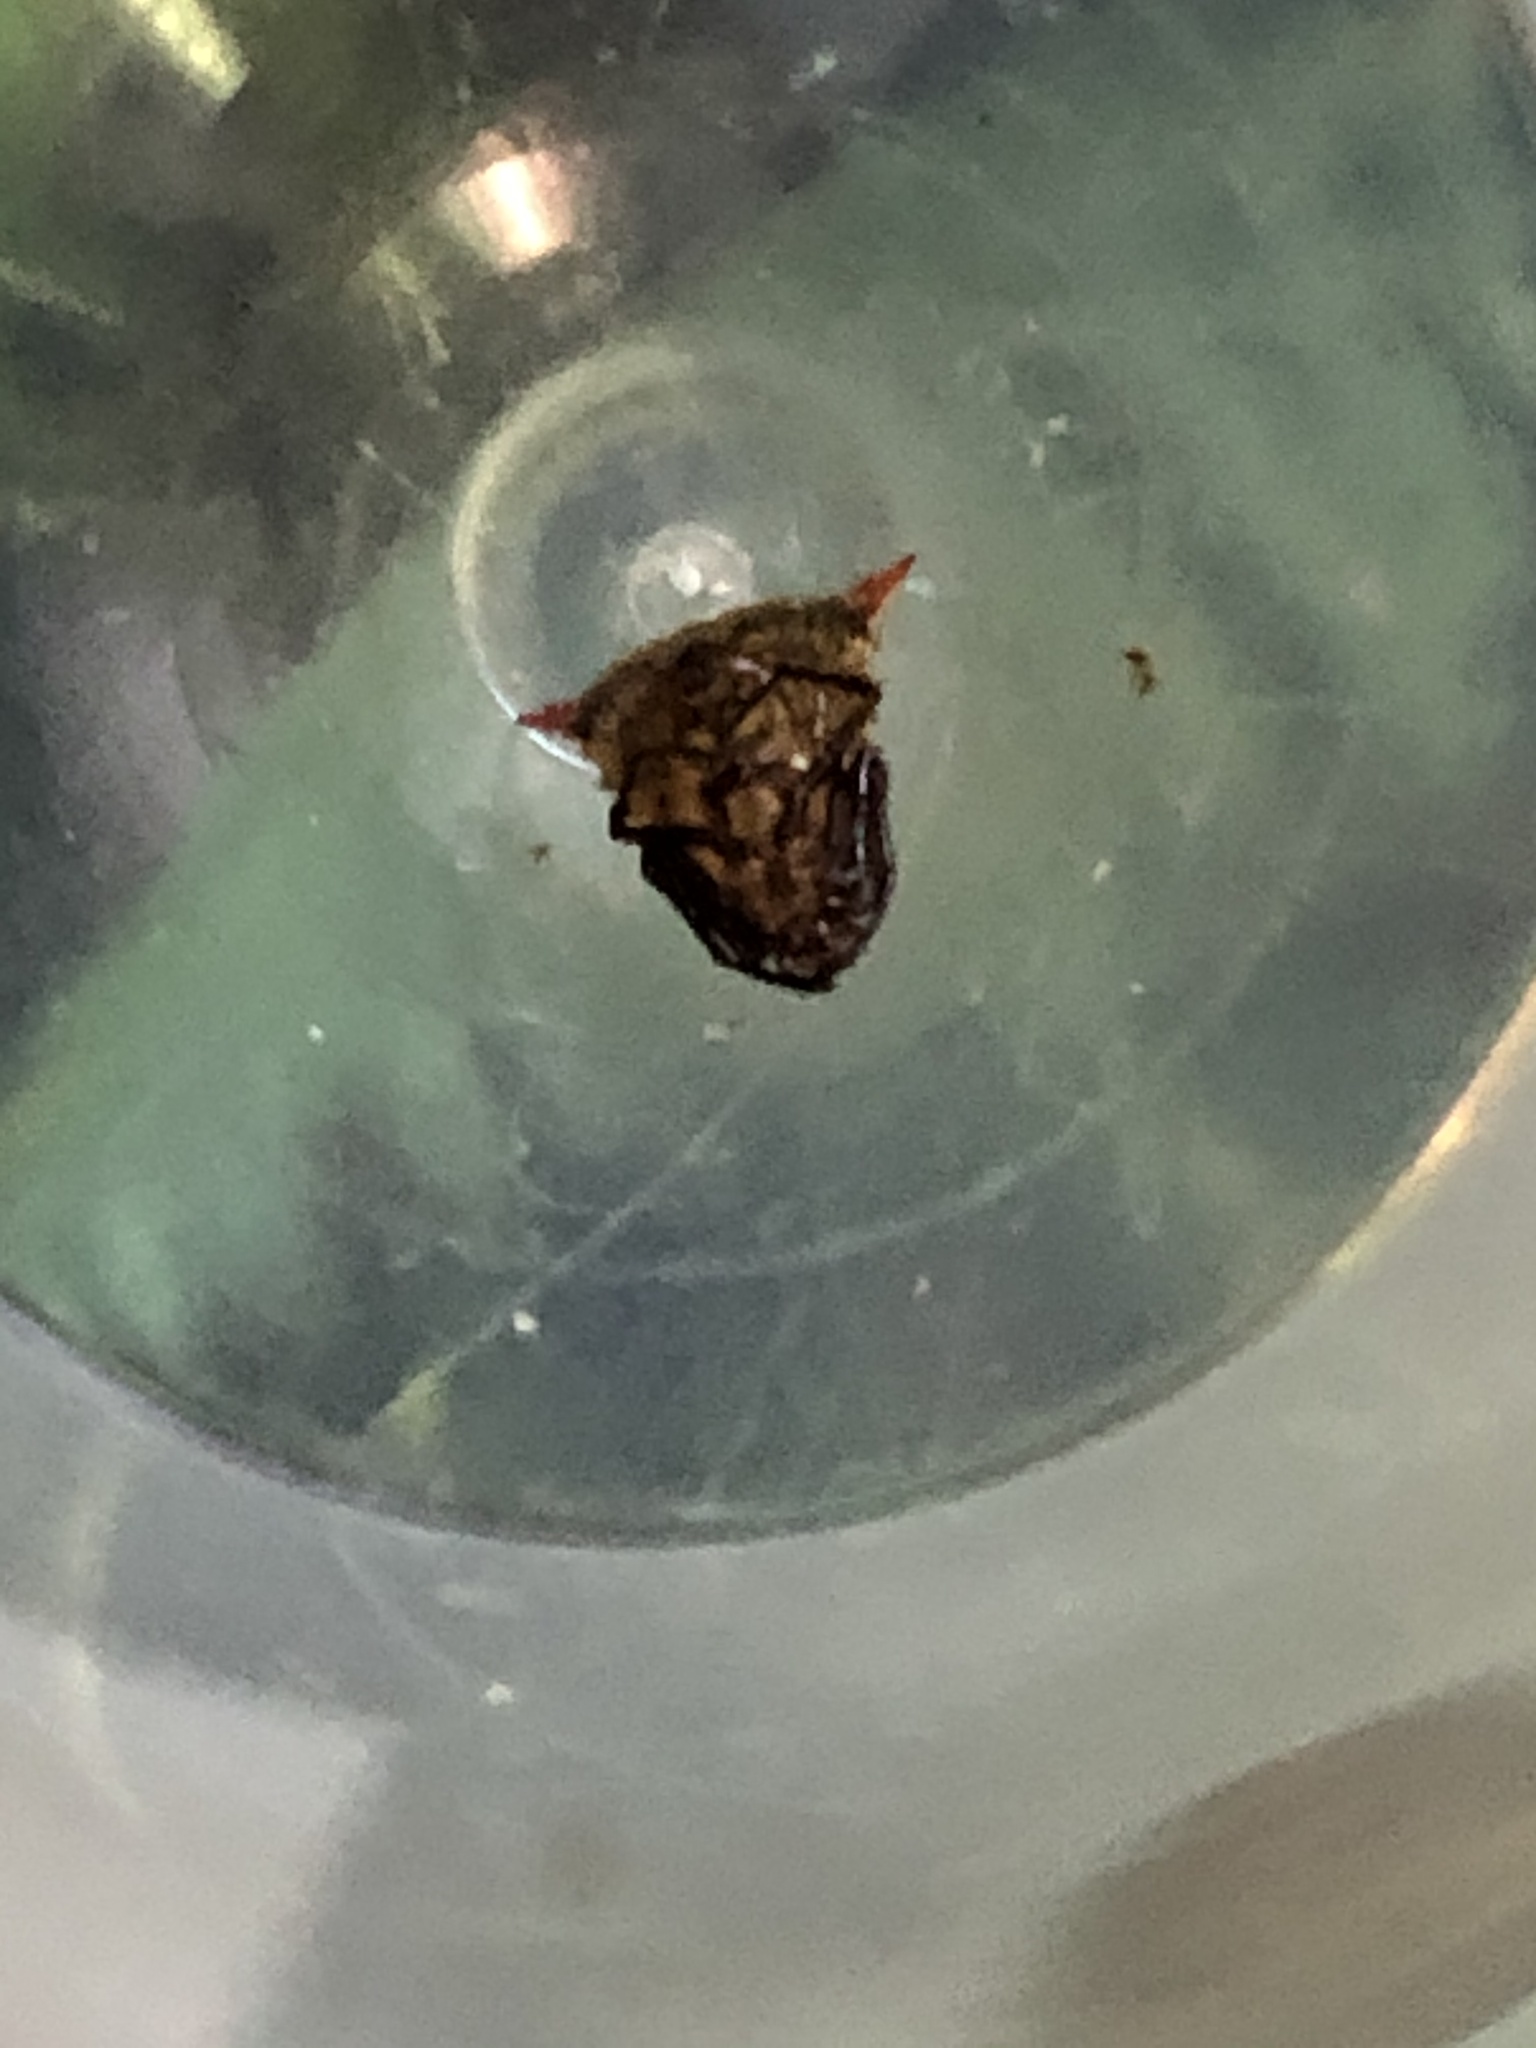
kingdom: Animalia
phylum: Arthropoda
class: Arachnida
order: Araneae
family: Araneidae
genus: Micrathena
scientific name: Micrathena huanuco
